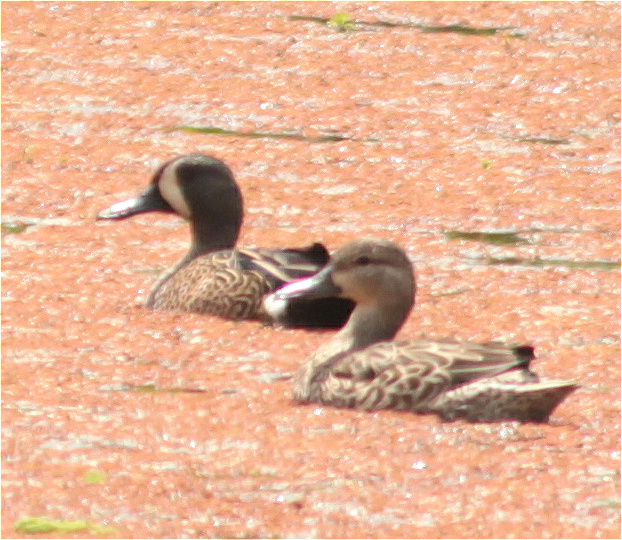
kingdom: Animalia
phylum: Chordata
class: Aves
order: Anseriformes
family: Anatidae
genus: Spatula
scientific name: Spatula discors
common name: Blue-winged teal
